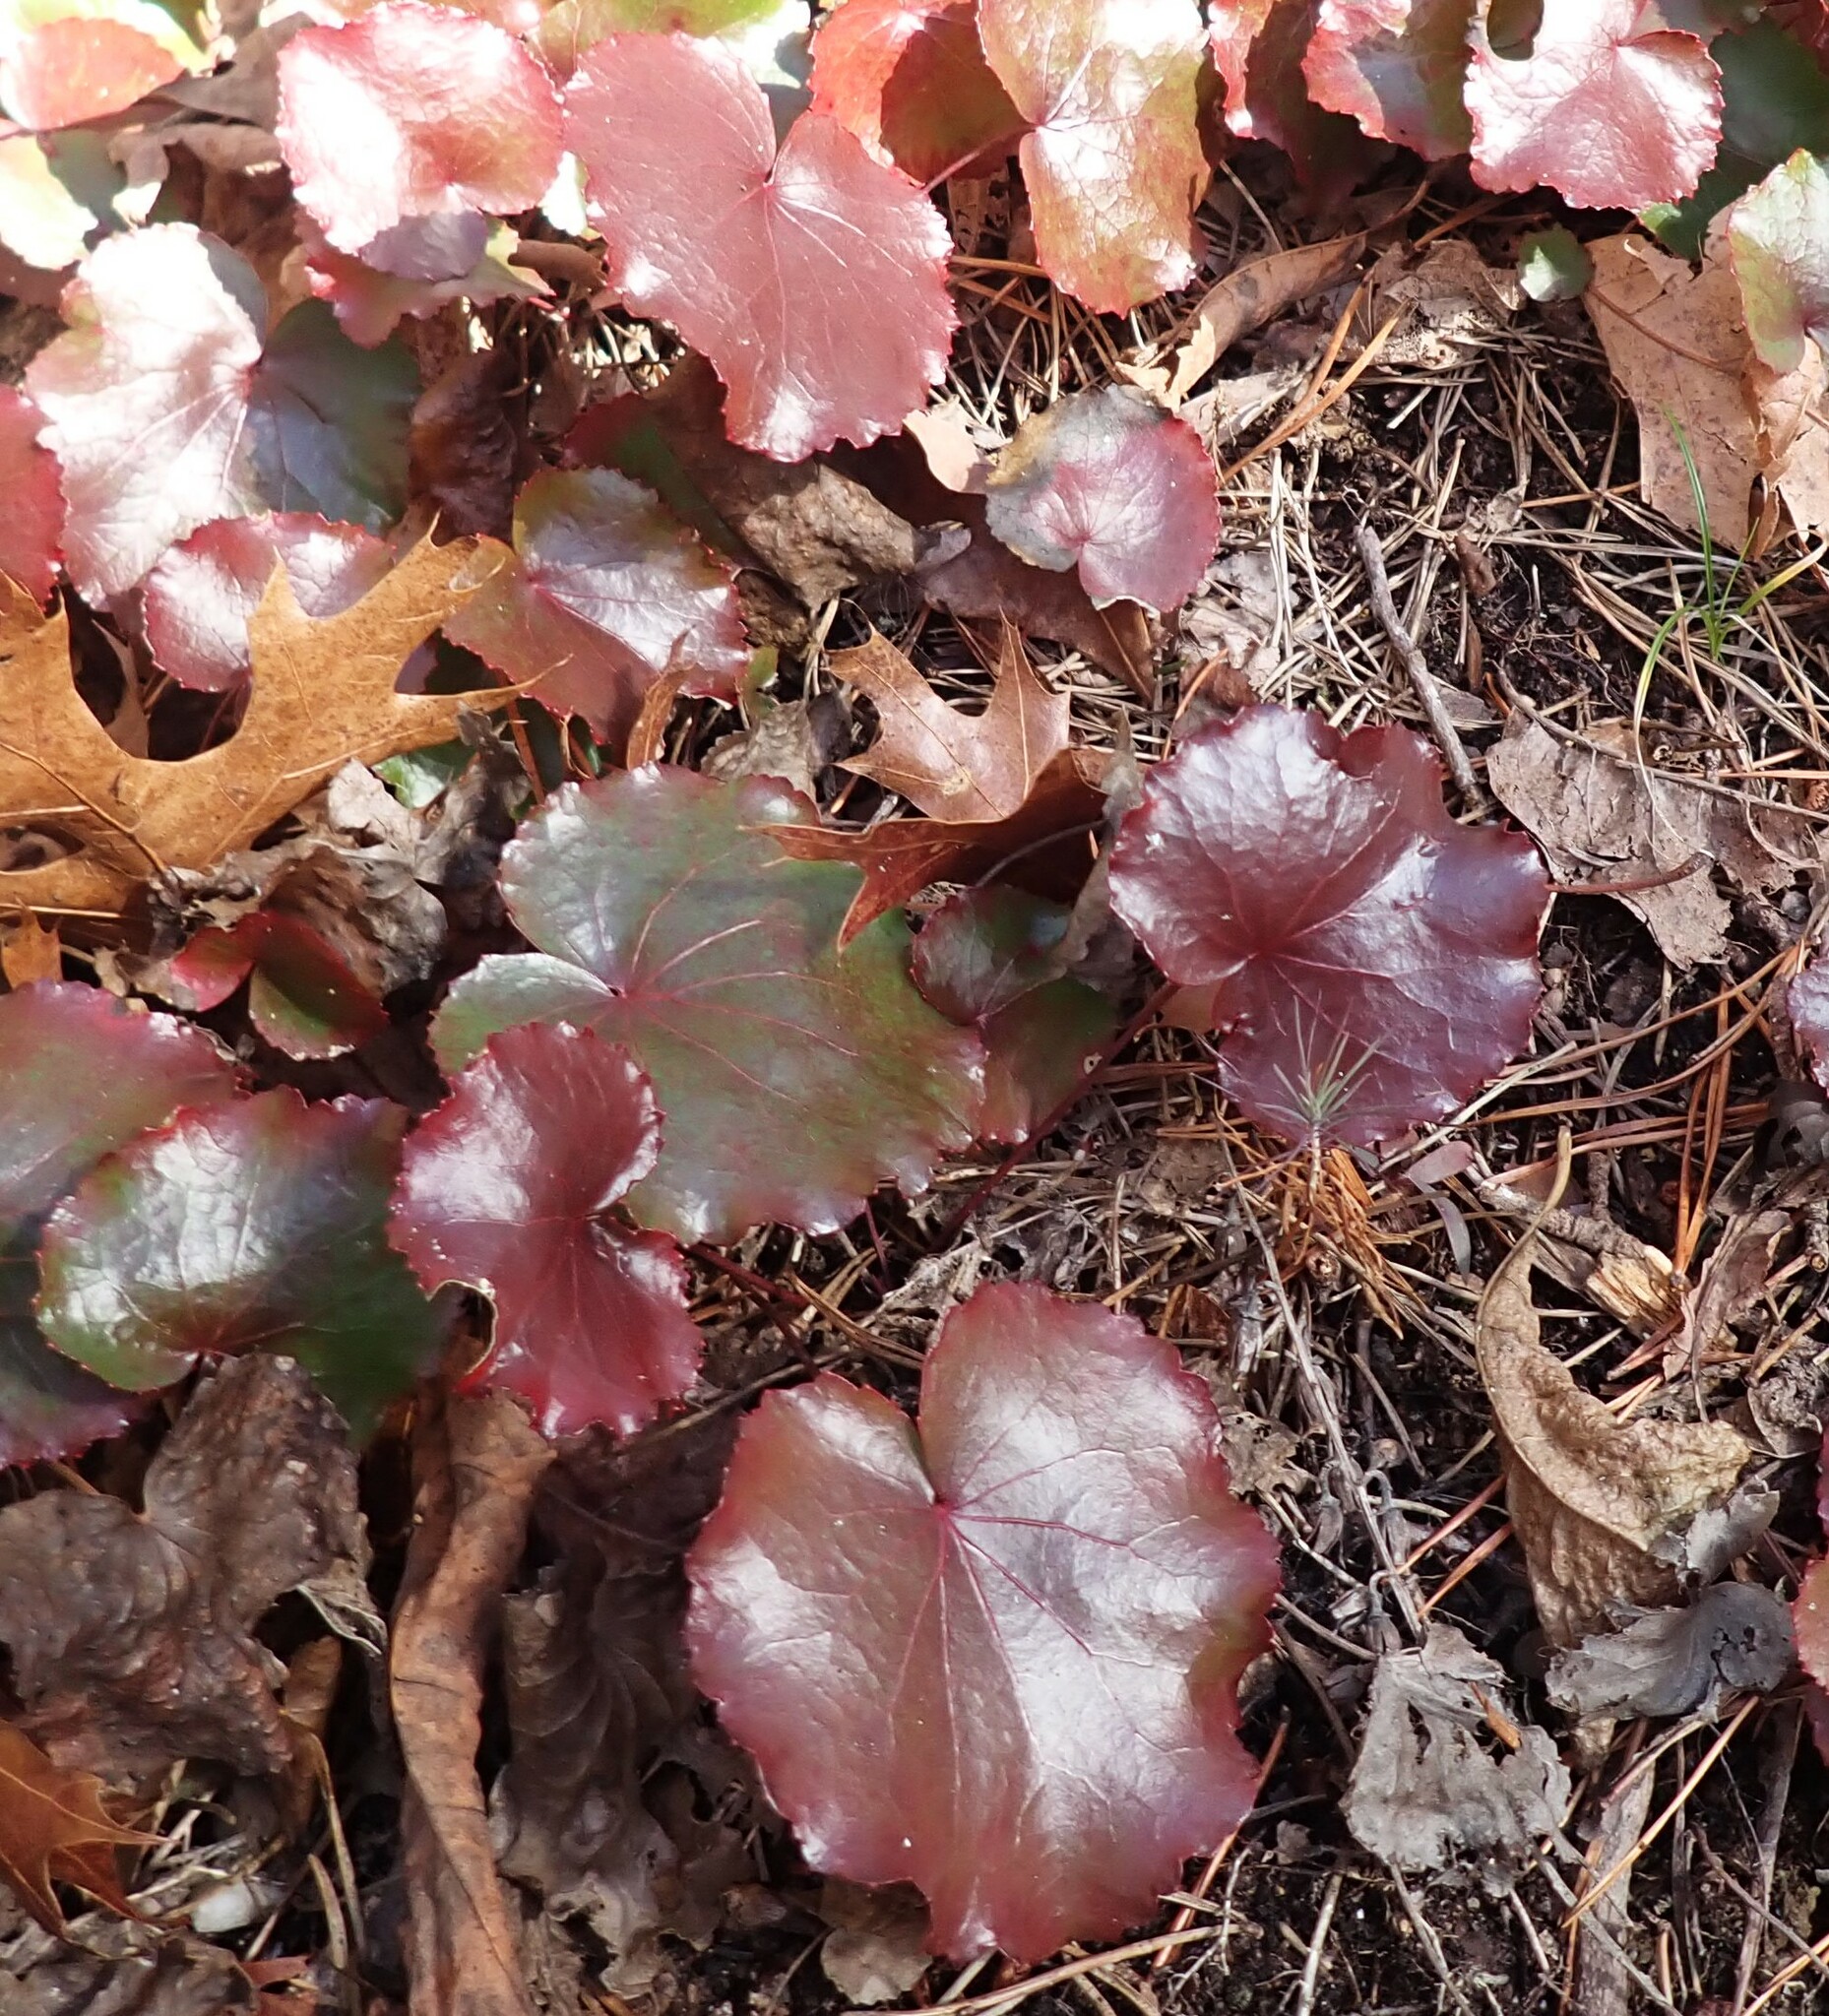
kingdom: Plantae
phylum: Tracheophyta
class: Magnoliopsida
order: Ericales
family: Diapensiaceae
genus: Galax
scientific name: Galax urceolata
